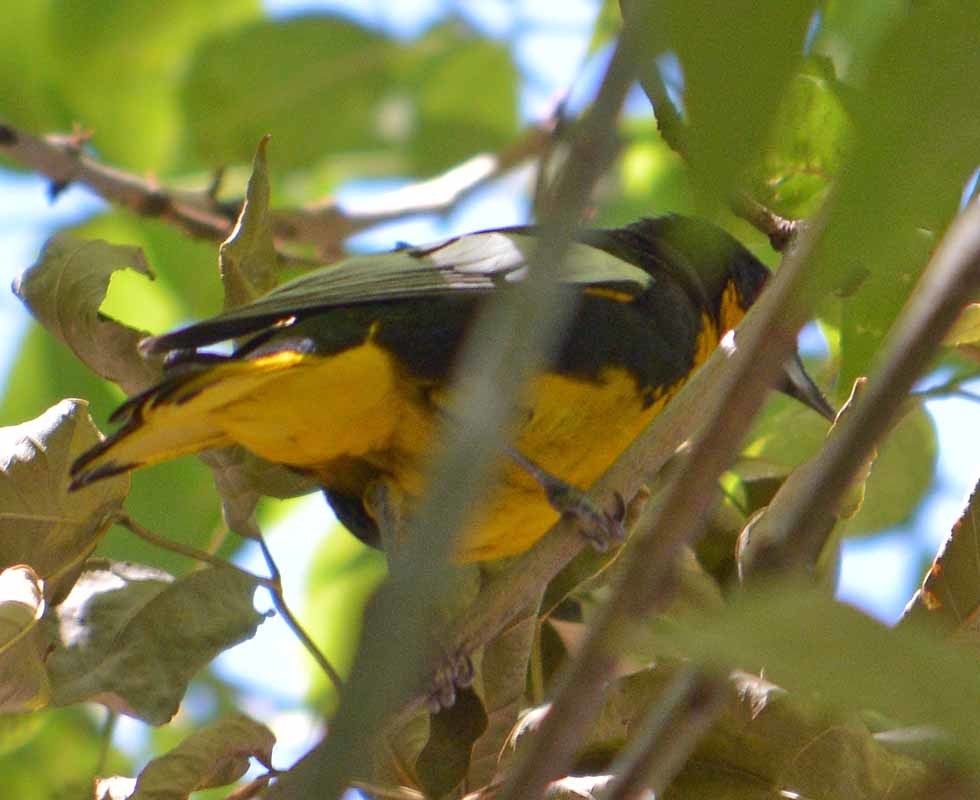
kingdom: Animalia
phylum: Chordata
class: Aves
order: Passeriformes
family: Icteridae
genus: Icterus
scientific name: Icterus abeillei
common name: Black-backed oriole
